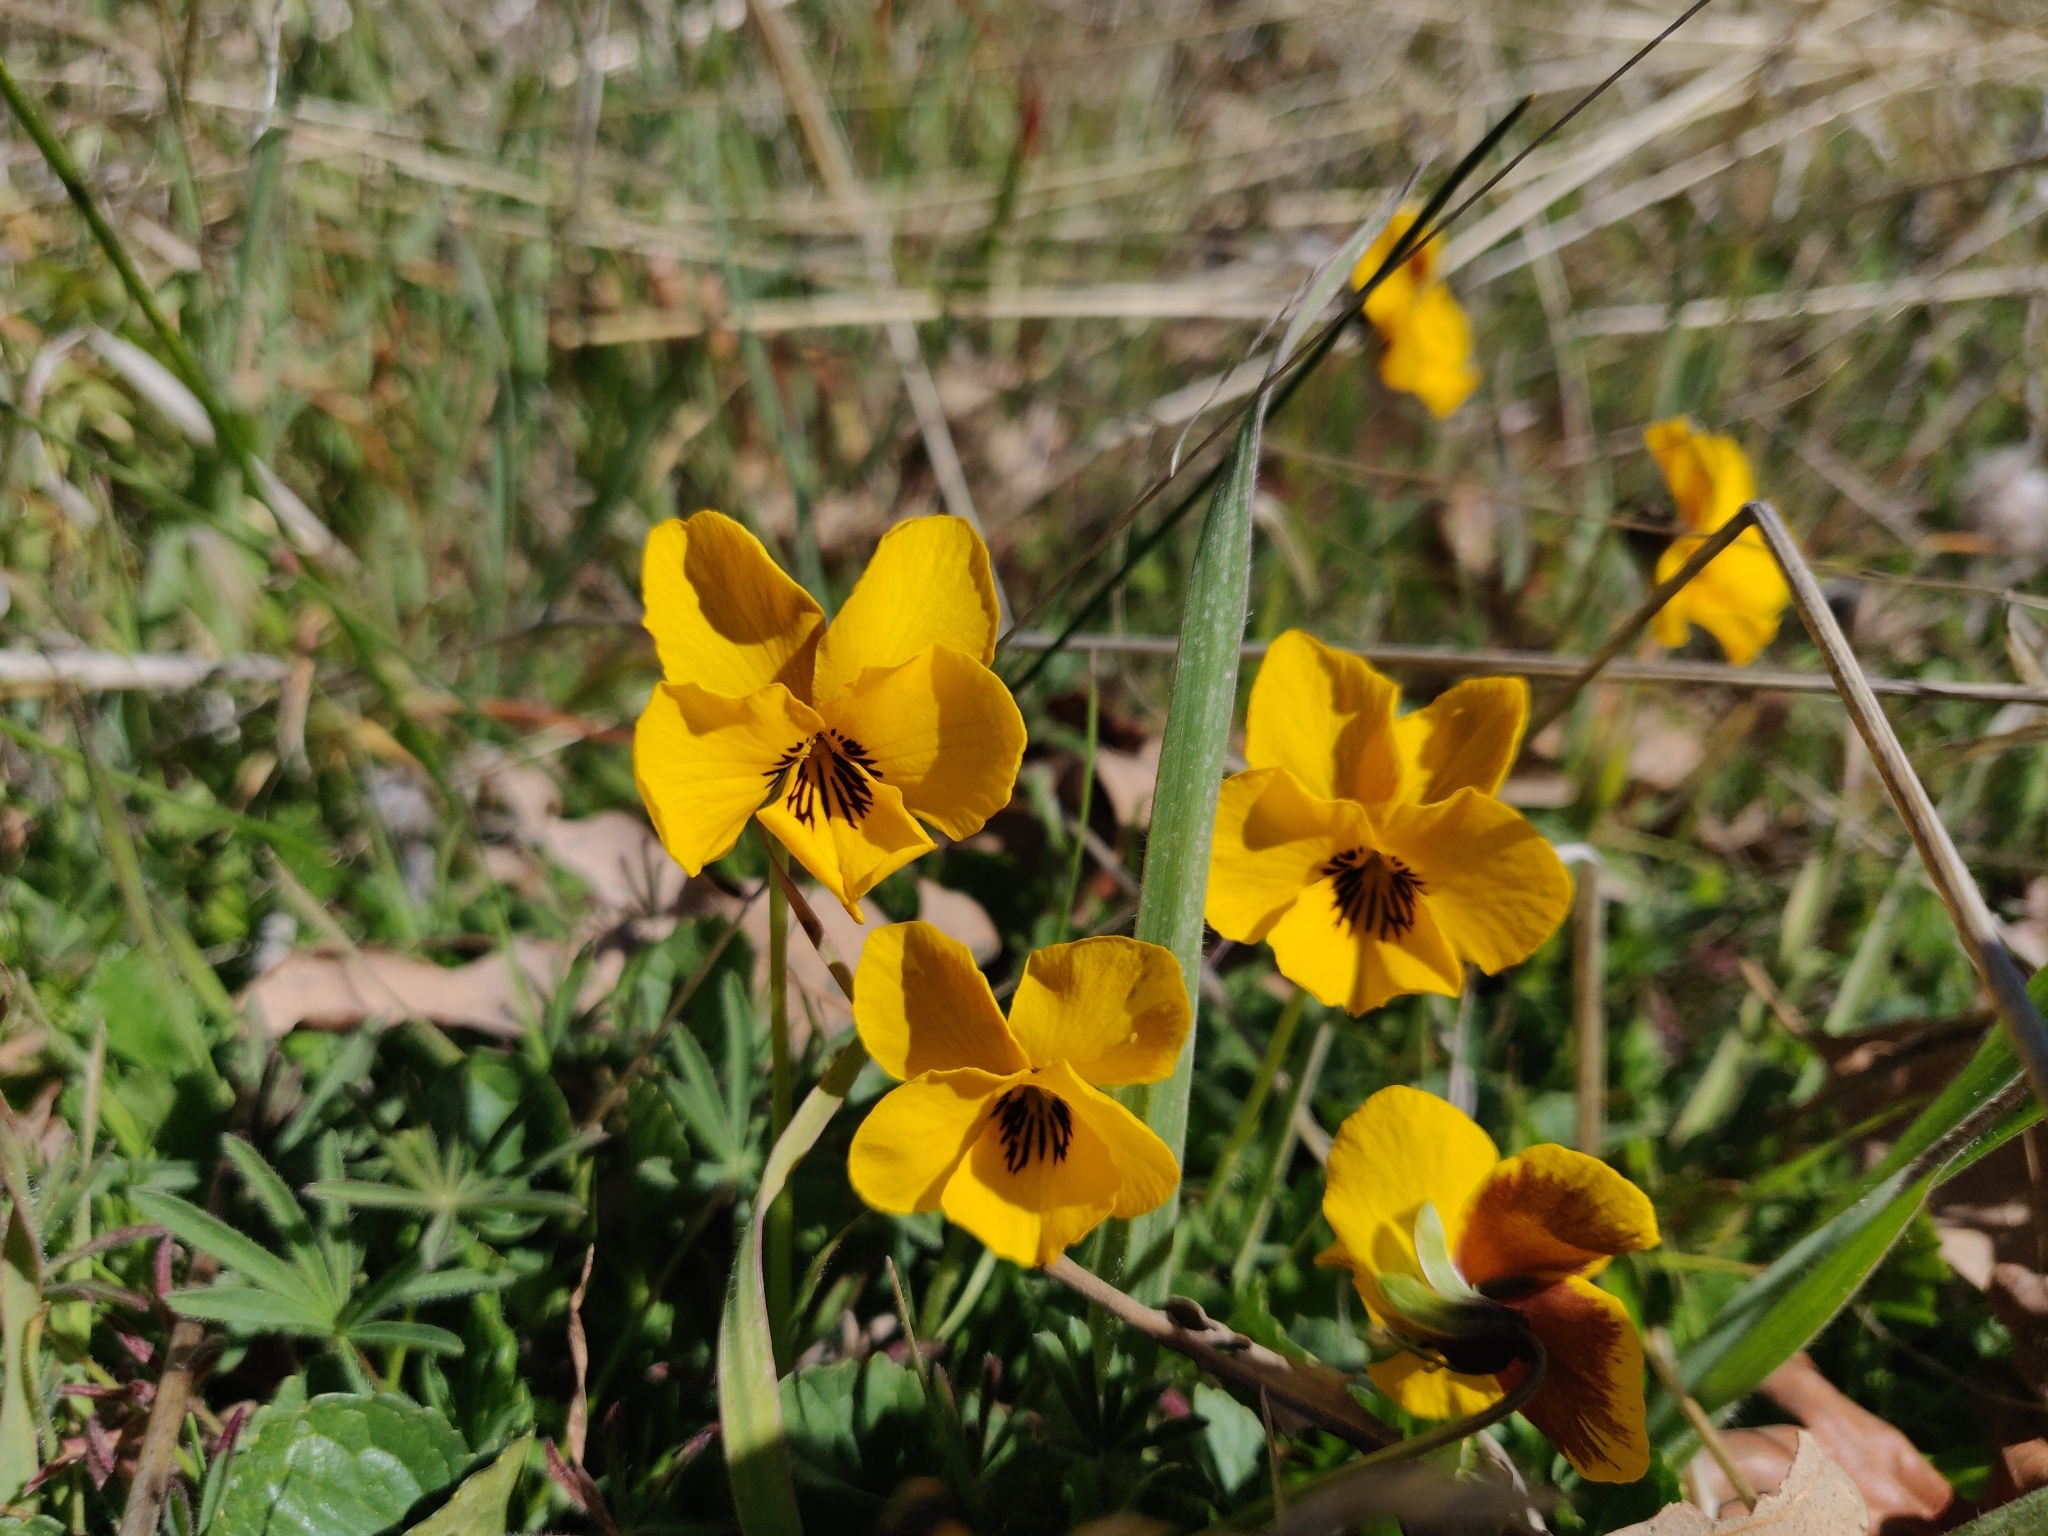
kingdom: Plantae
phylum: Tracheophyta
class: Magnoliopsida
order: Malpighiales
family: Violaceae
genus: Viola
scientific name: Viola pedunculata
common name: California golden violet
